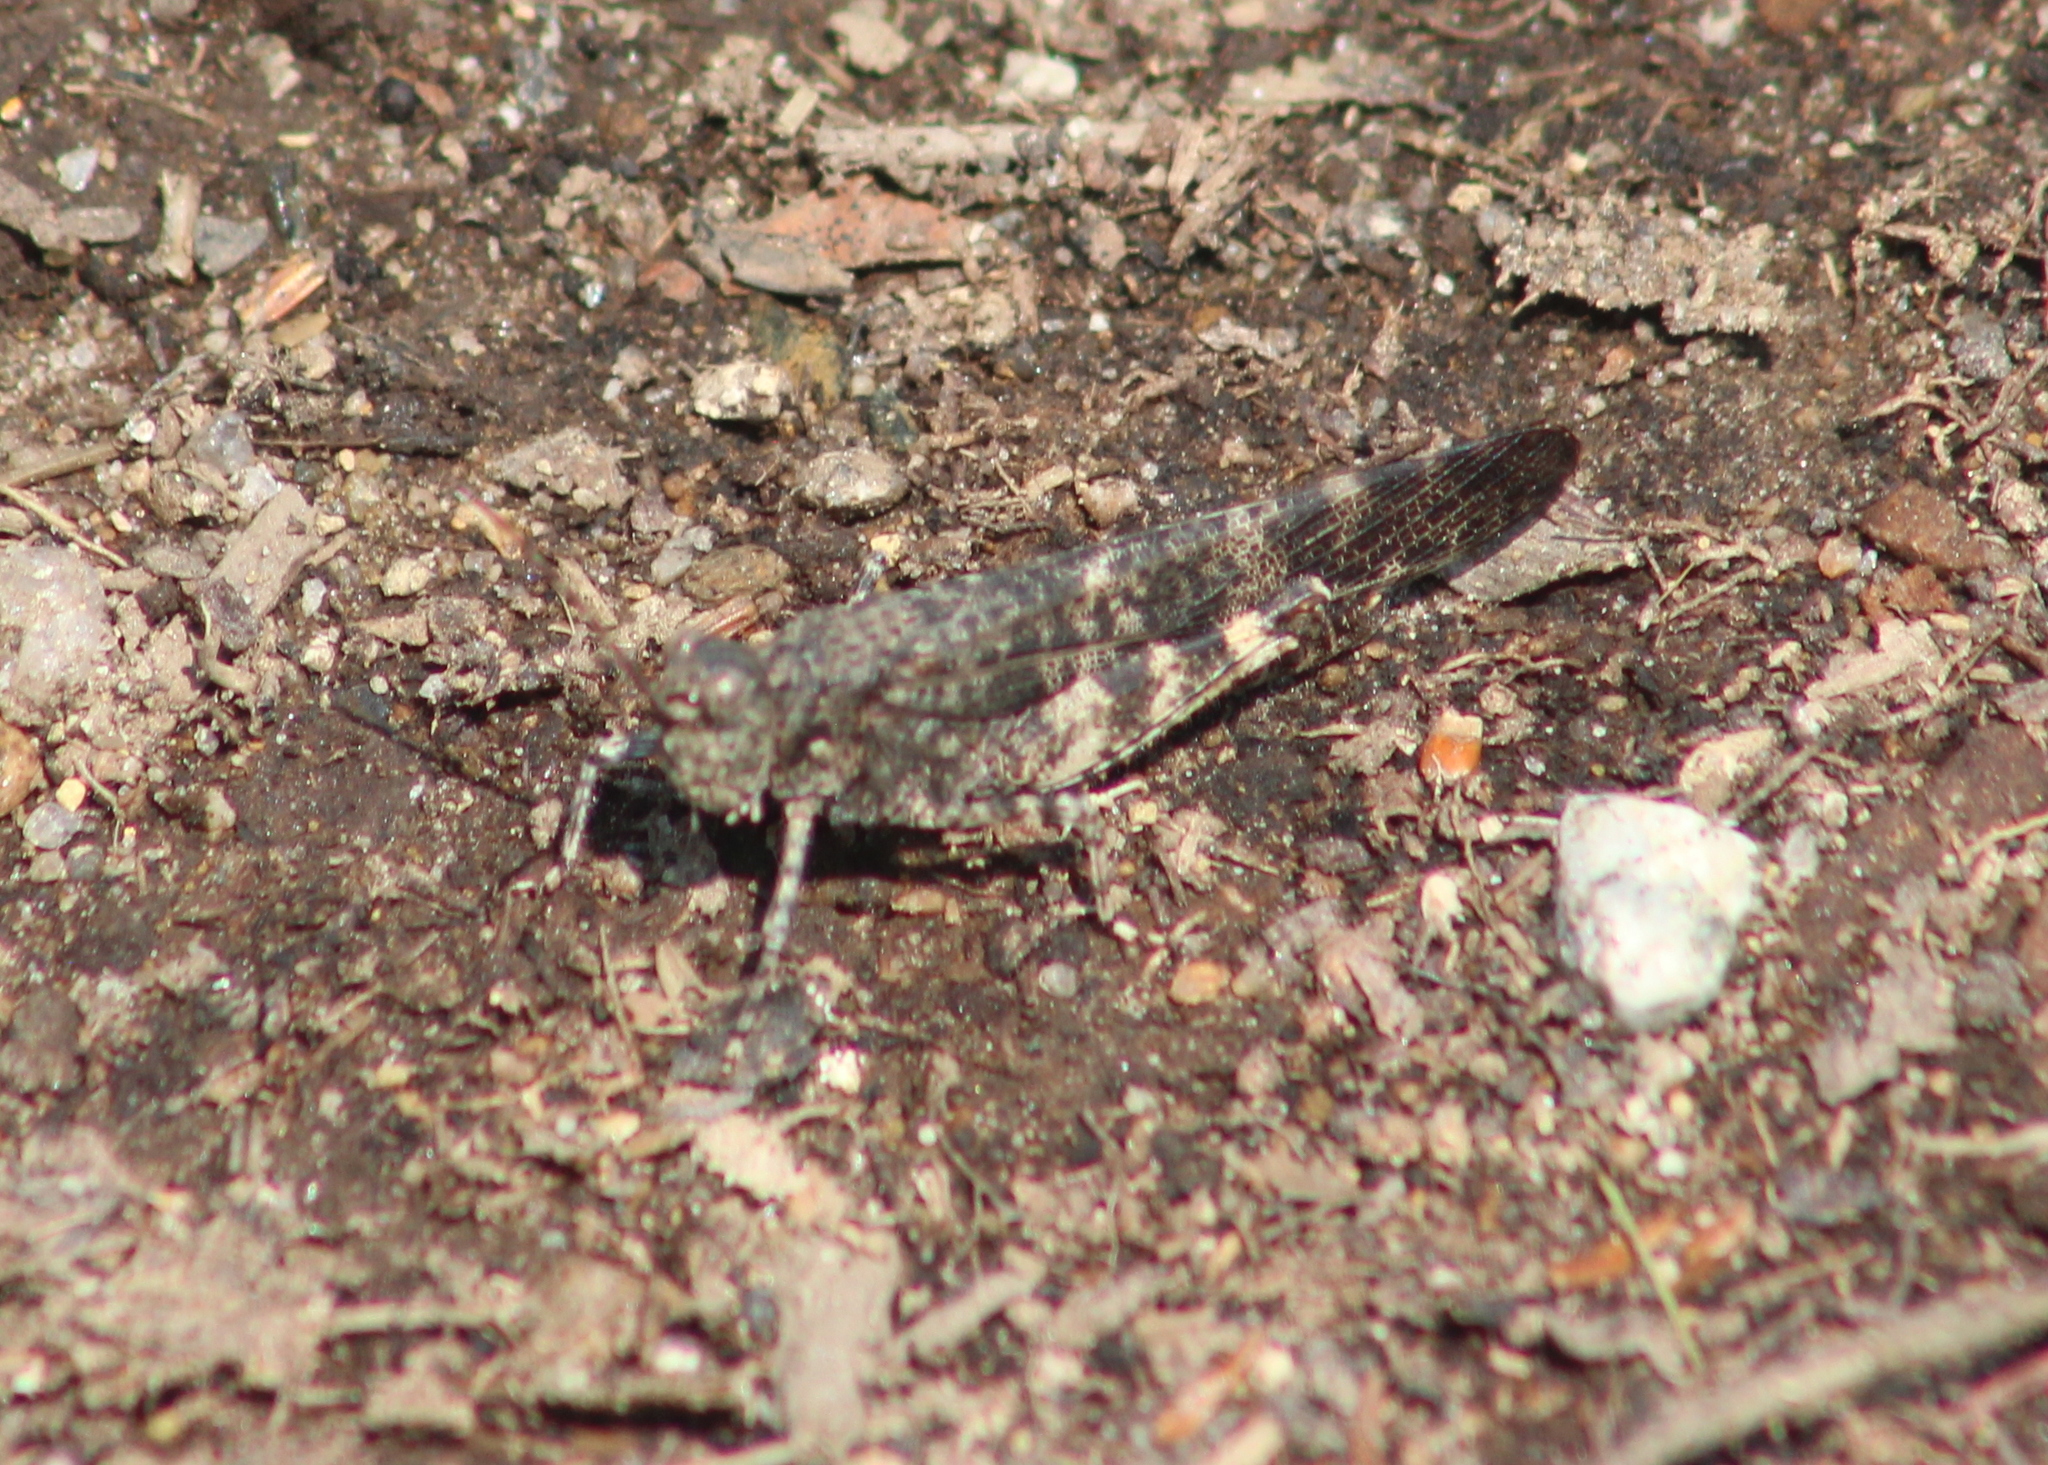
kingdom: Animalia
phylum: Arthropoda
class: Insecta
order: Orthoptera
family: Acrididae
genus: Trimerotropis
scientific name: Trimerotropis verruculata
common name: Crackling forest grasshopper
